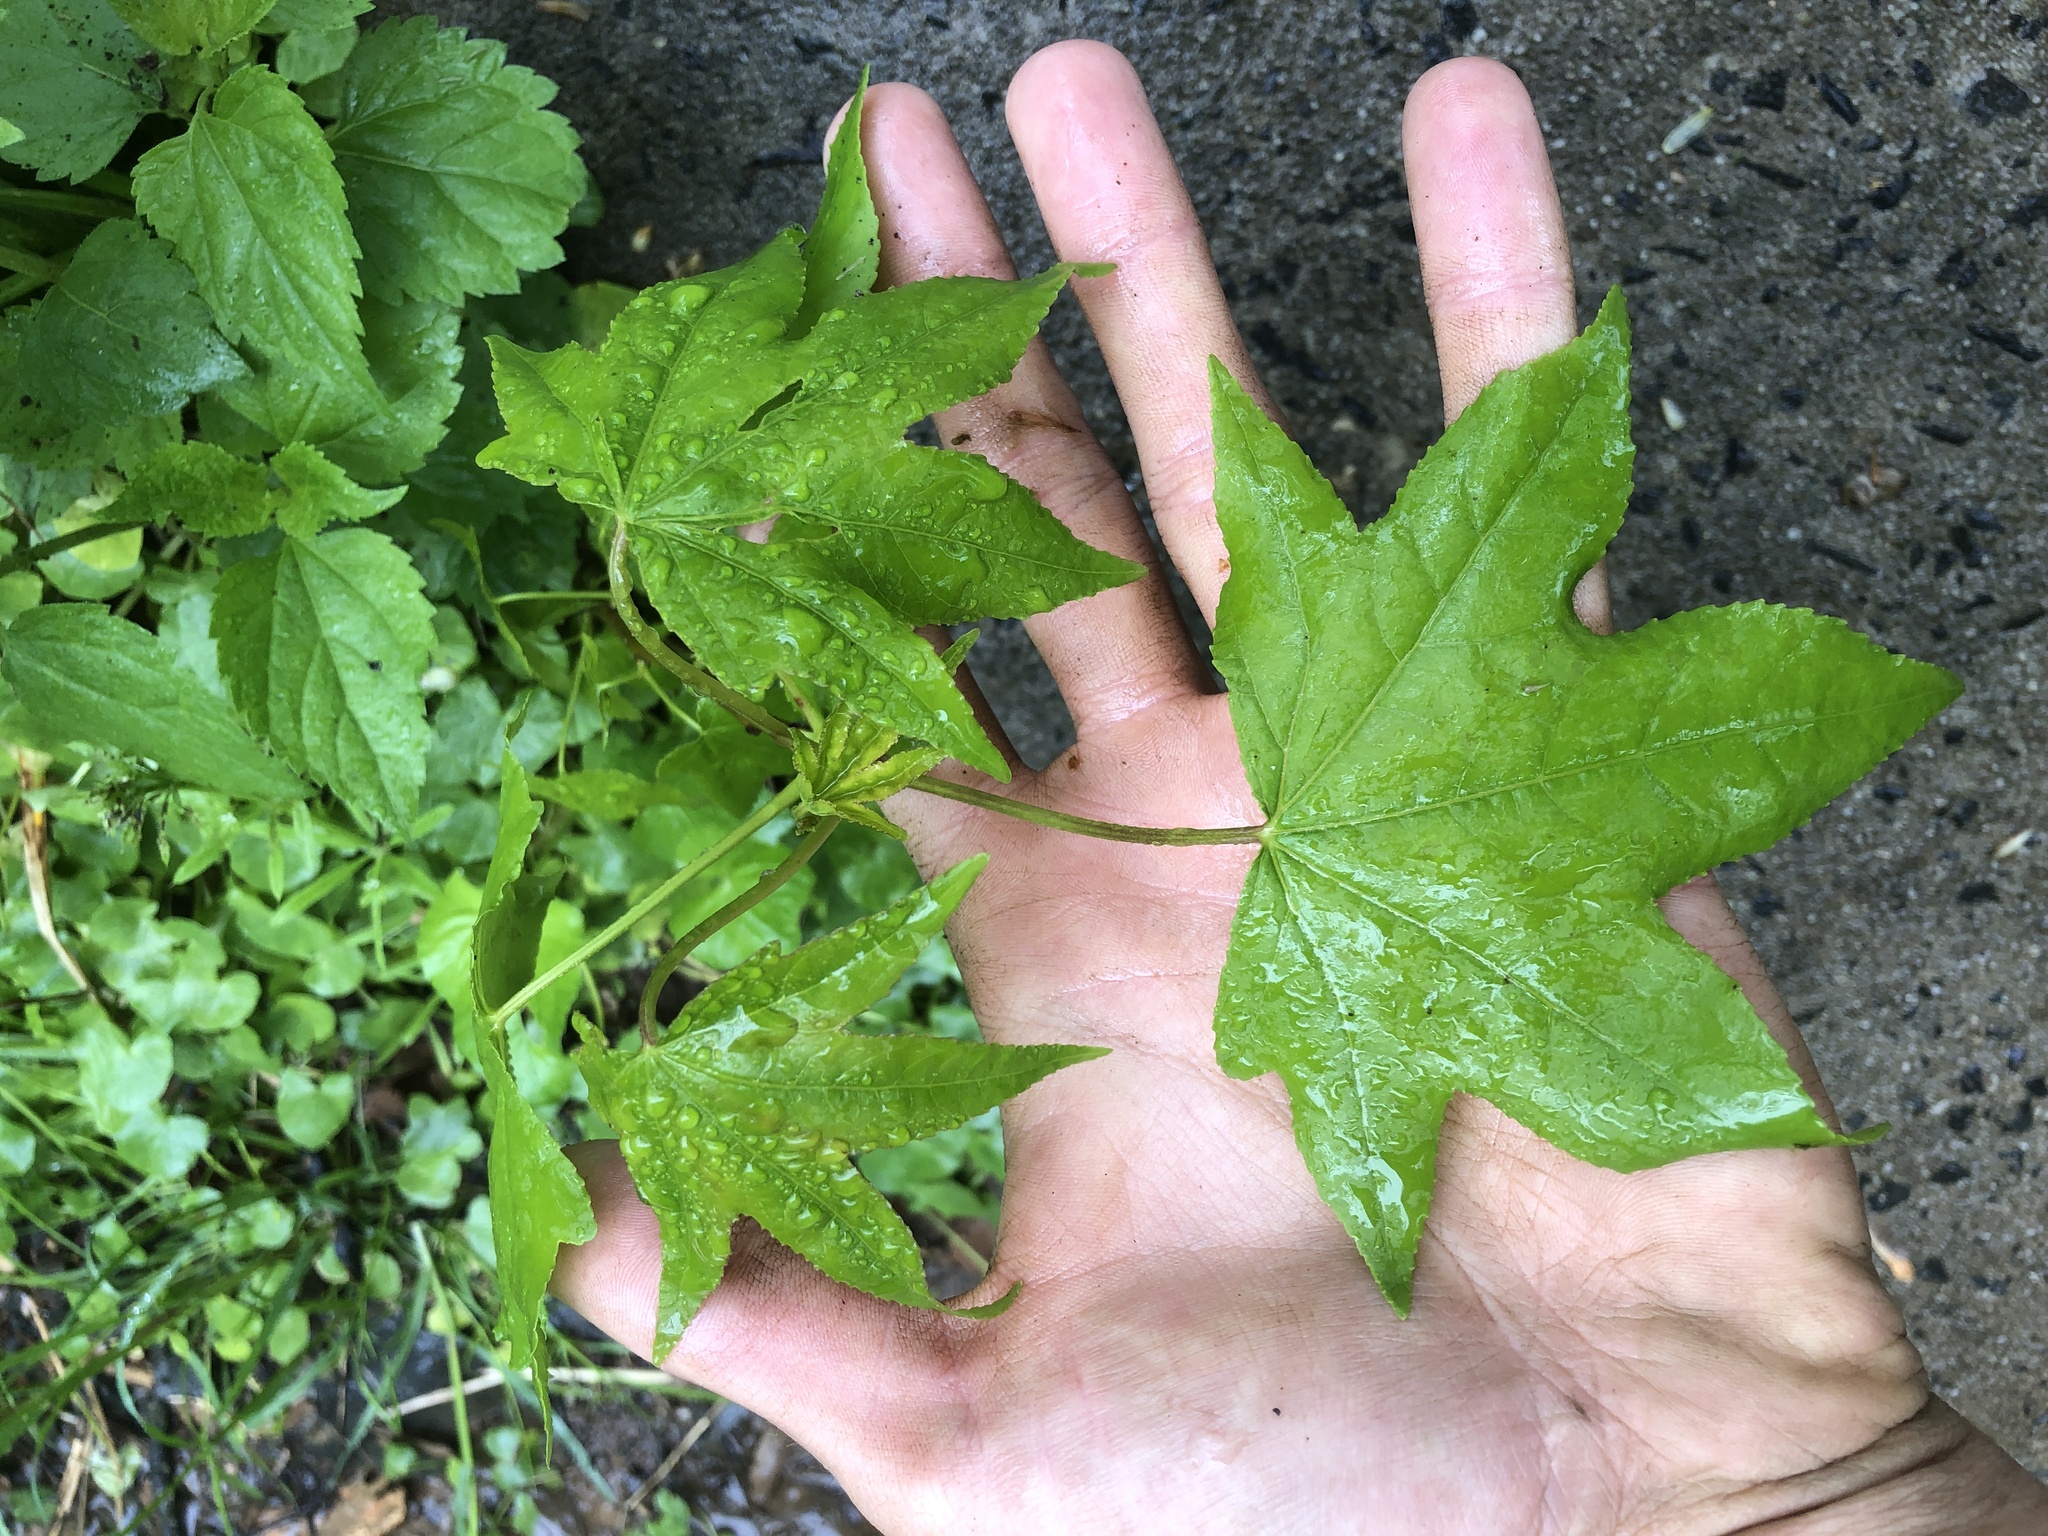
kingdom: Plantae
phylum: Tracheophyta
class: Magnoliopsida
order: Saxifragales
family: Altingiaceae
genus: Liquidambar
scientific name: Liquidambar styraciflua
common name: Sweet gum
